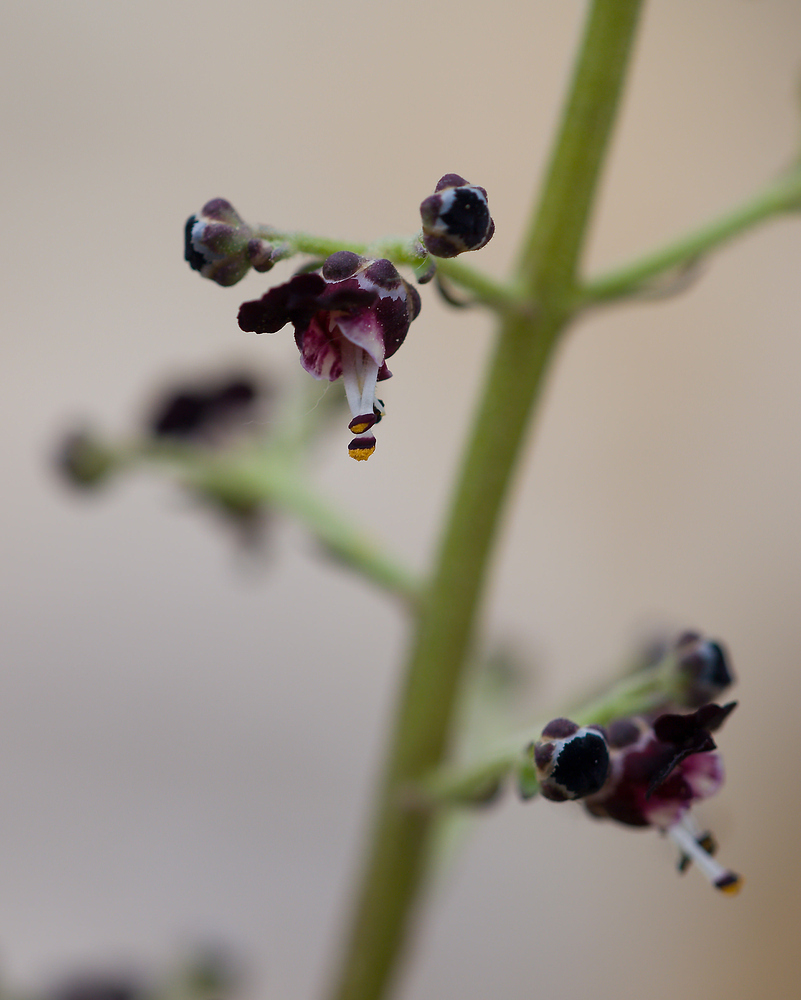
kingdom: Plantae
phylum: Tracheophyta
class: Magnoliopsida
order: Lamiales
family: Scrophulariaceae
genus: Scrophularia
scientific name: Scrophularia canina
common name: French figwort
